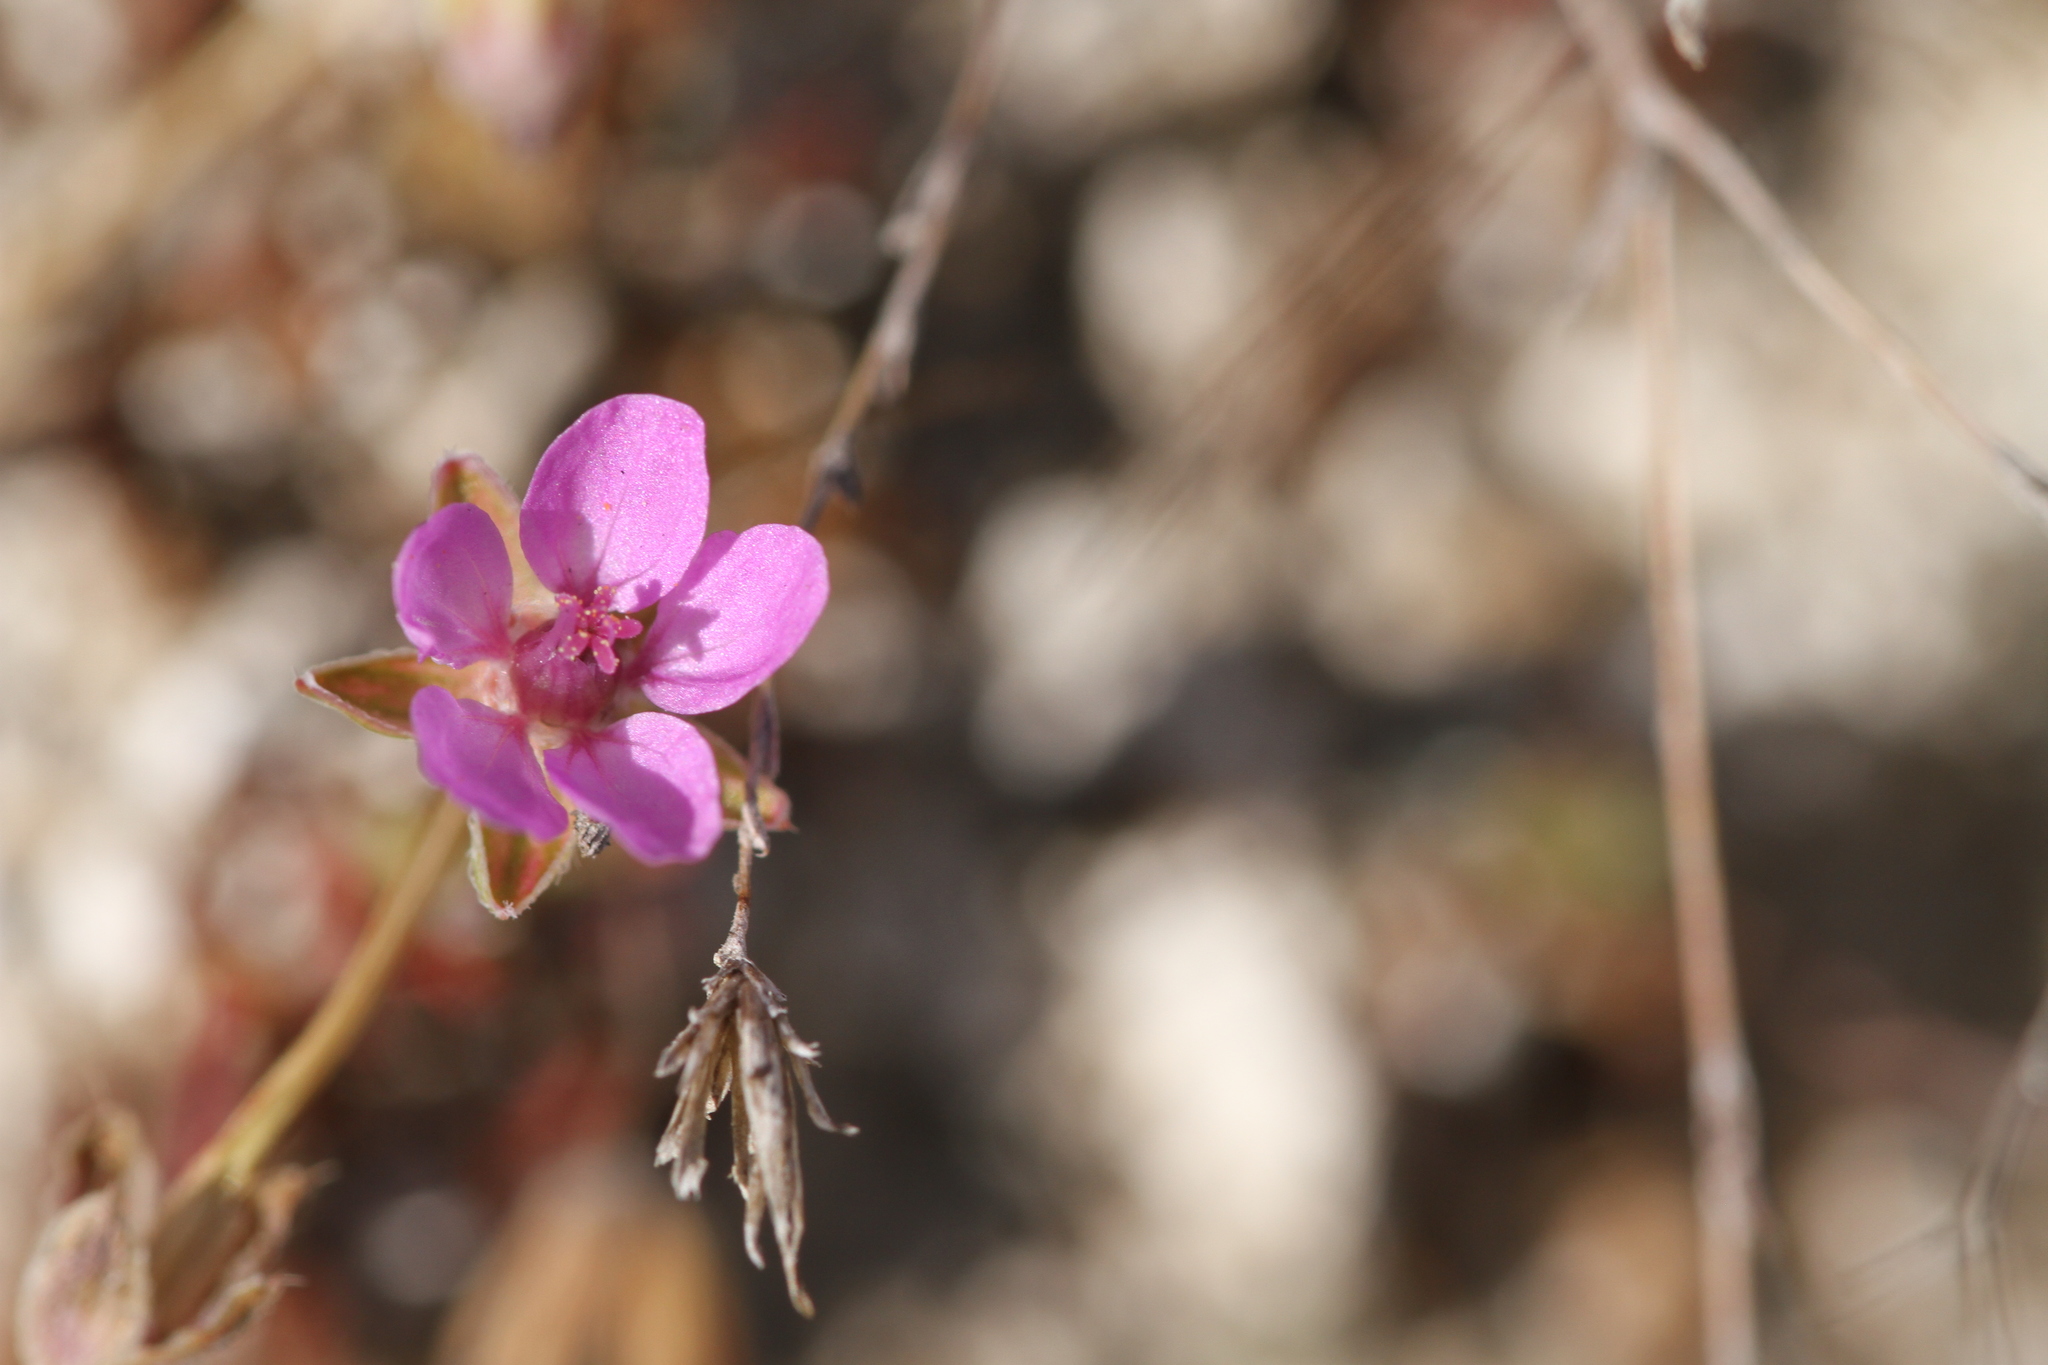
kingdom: Plantae
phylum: Tracheophyta
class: Magnoliopsida
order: Geraniales
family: Geraniaceae
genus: Erodium
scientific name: Erodium cicutarium
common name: Common stork's-bill
